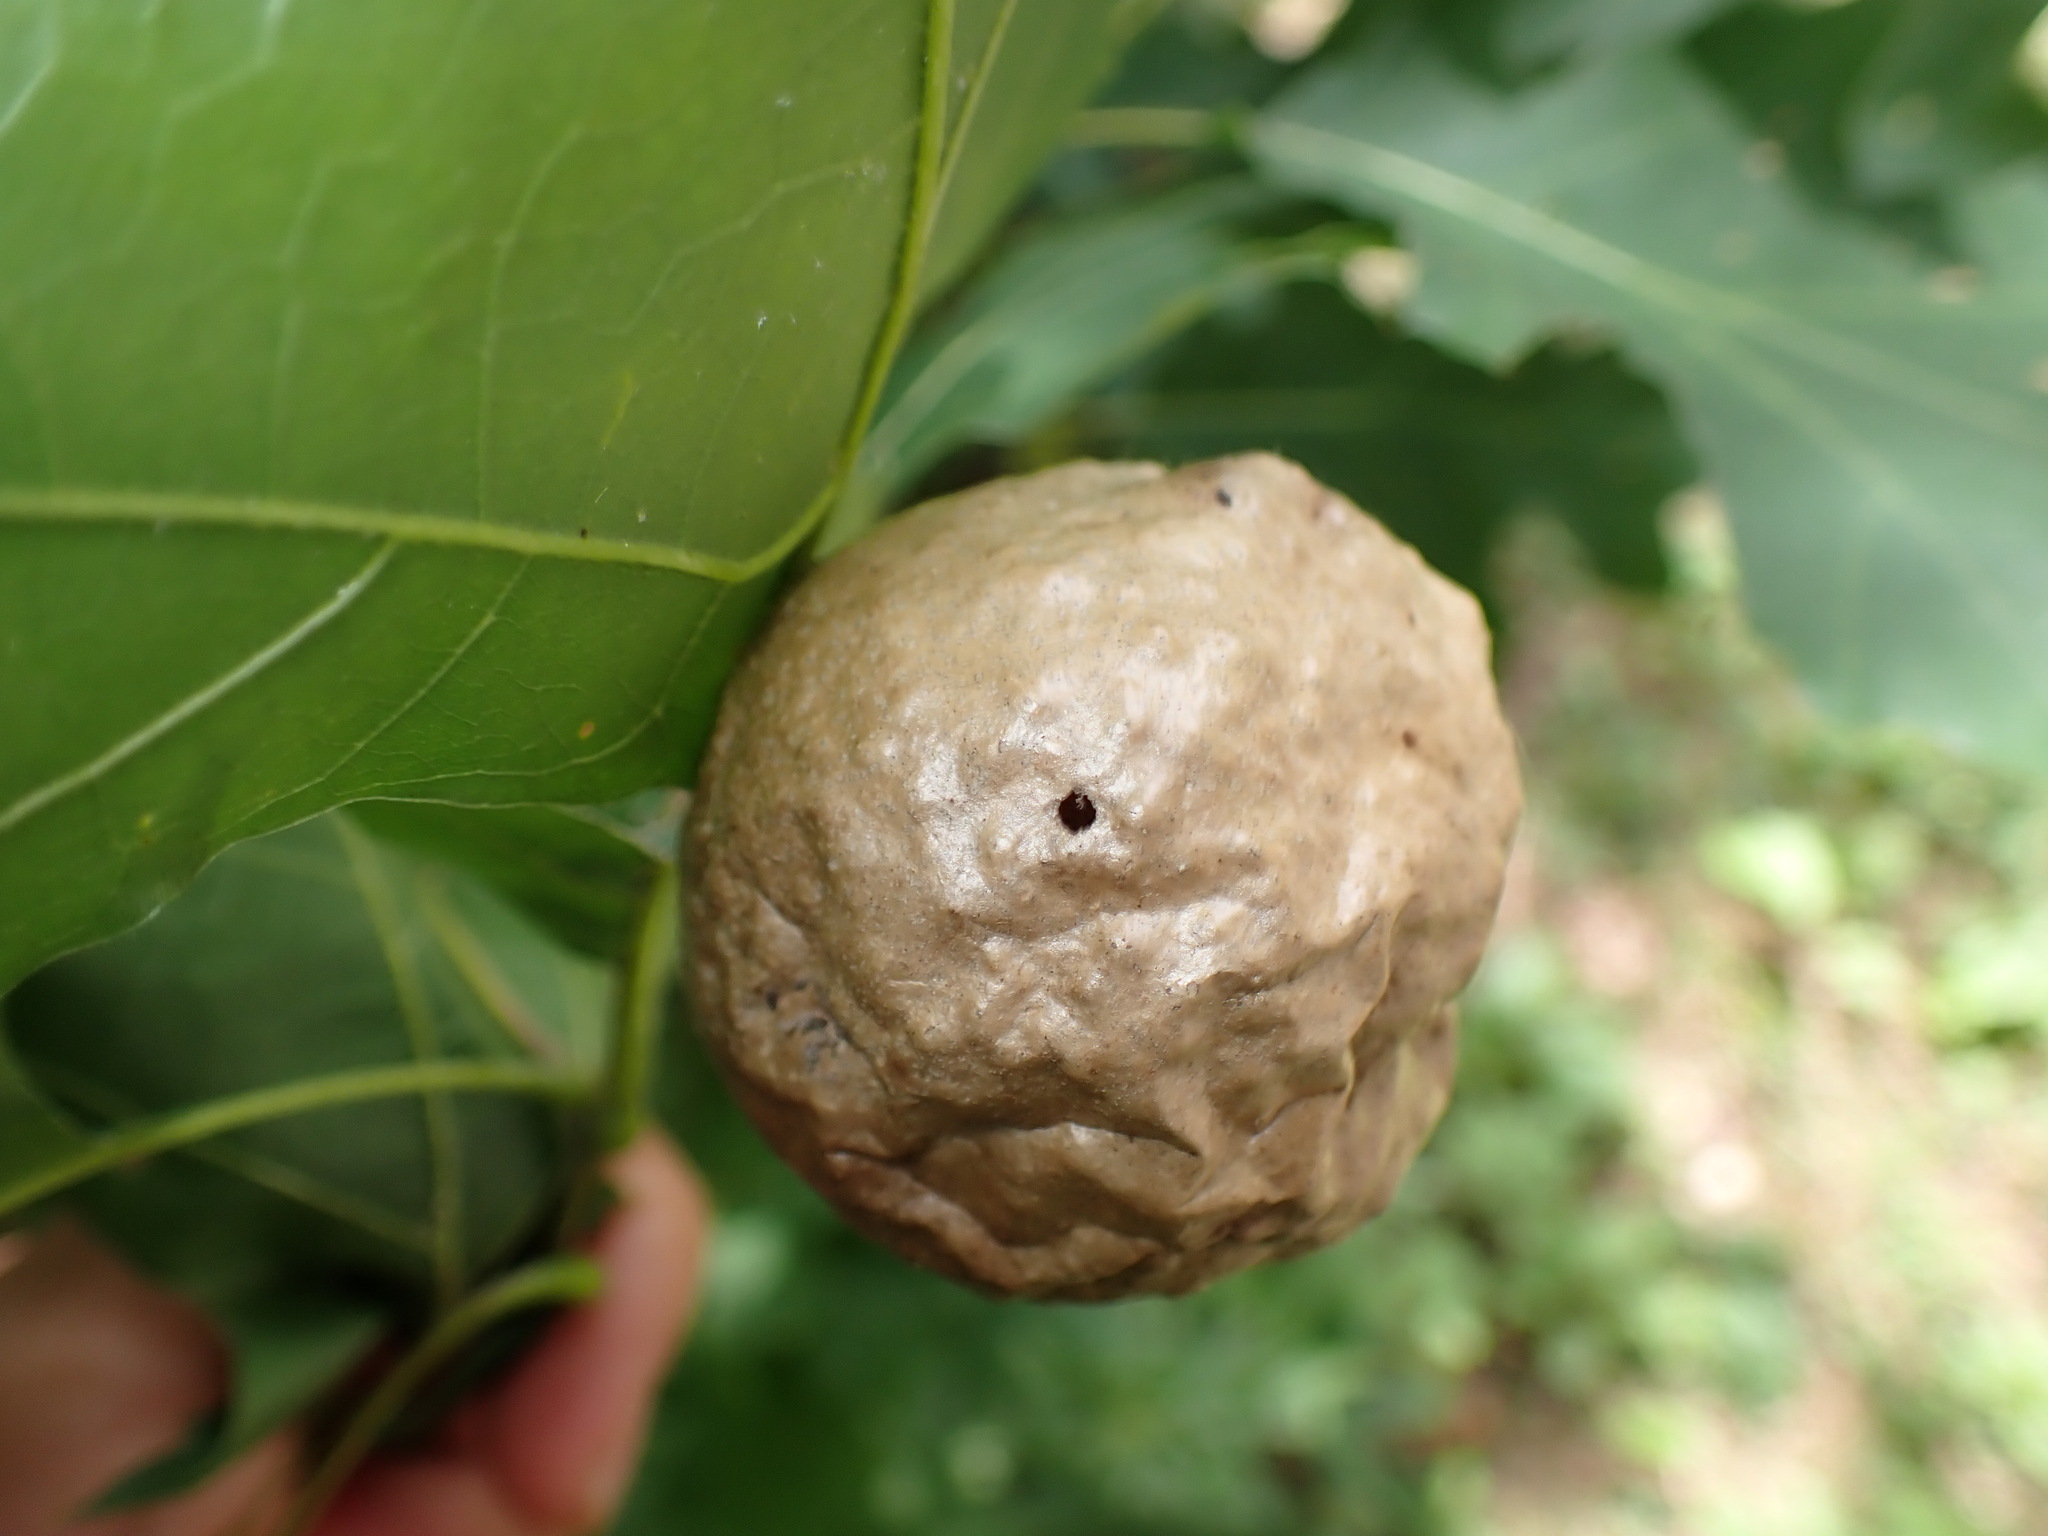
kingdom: Animalia
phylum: Arthropoda
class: Insecta
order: Hymenoptera
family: Cynipidae
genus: Amphibolips
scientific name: Amphibolips
